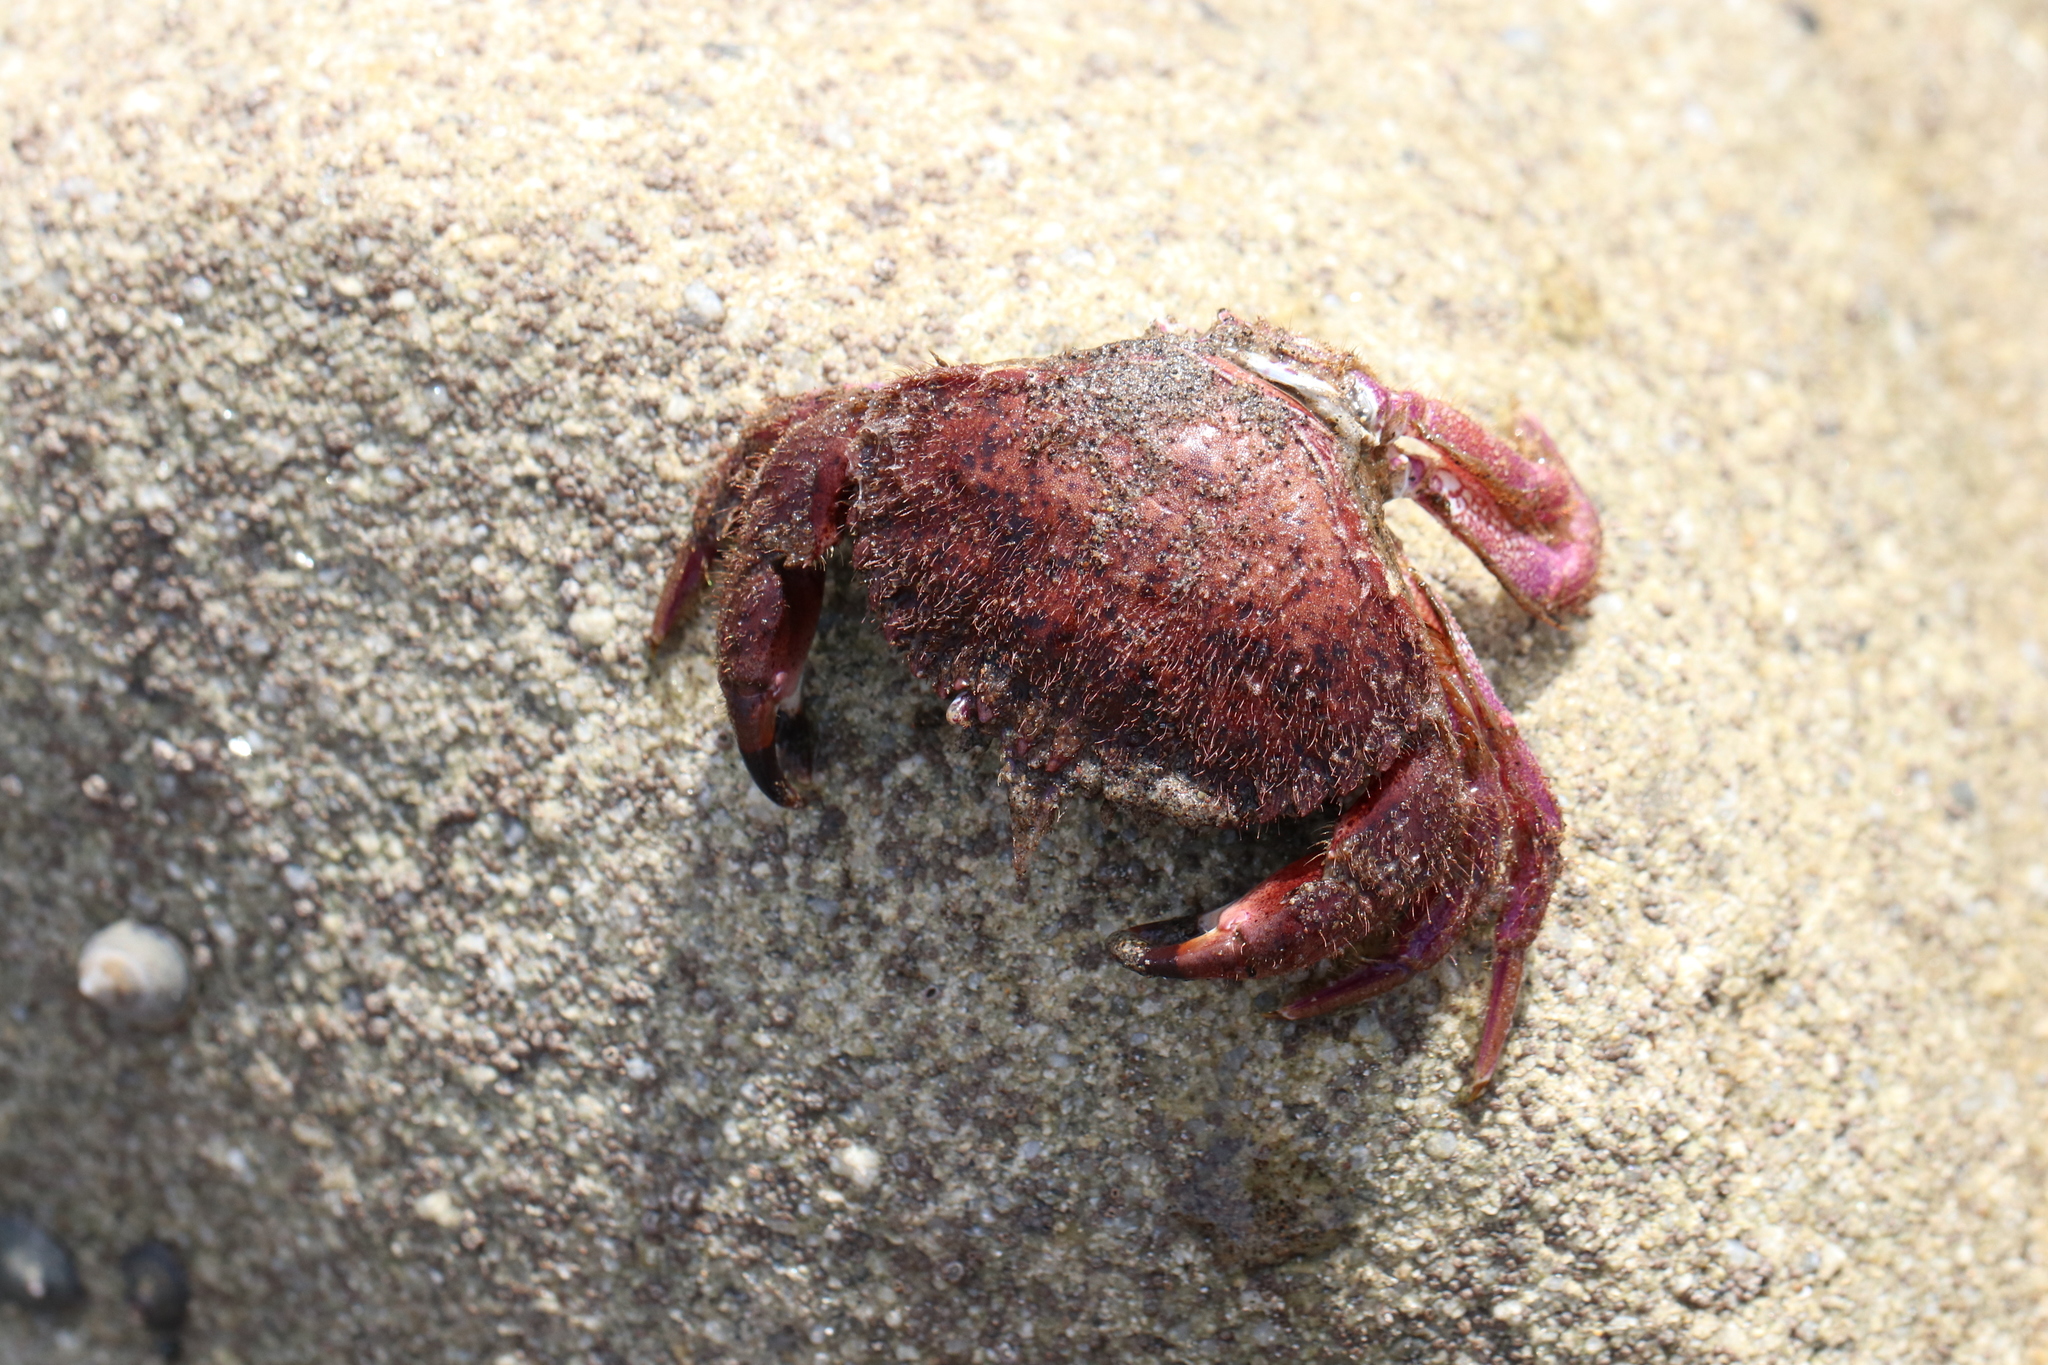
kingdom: Animalia
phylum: Arthropoda
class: Malacostraca
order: Decapoda
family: Cancridae
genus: Romaleon
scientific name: Romaleon antennarium
